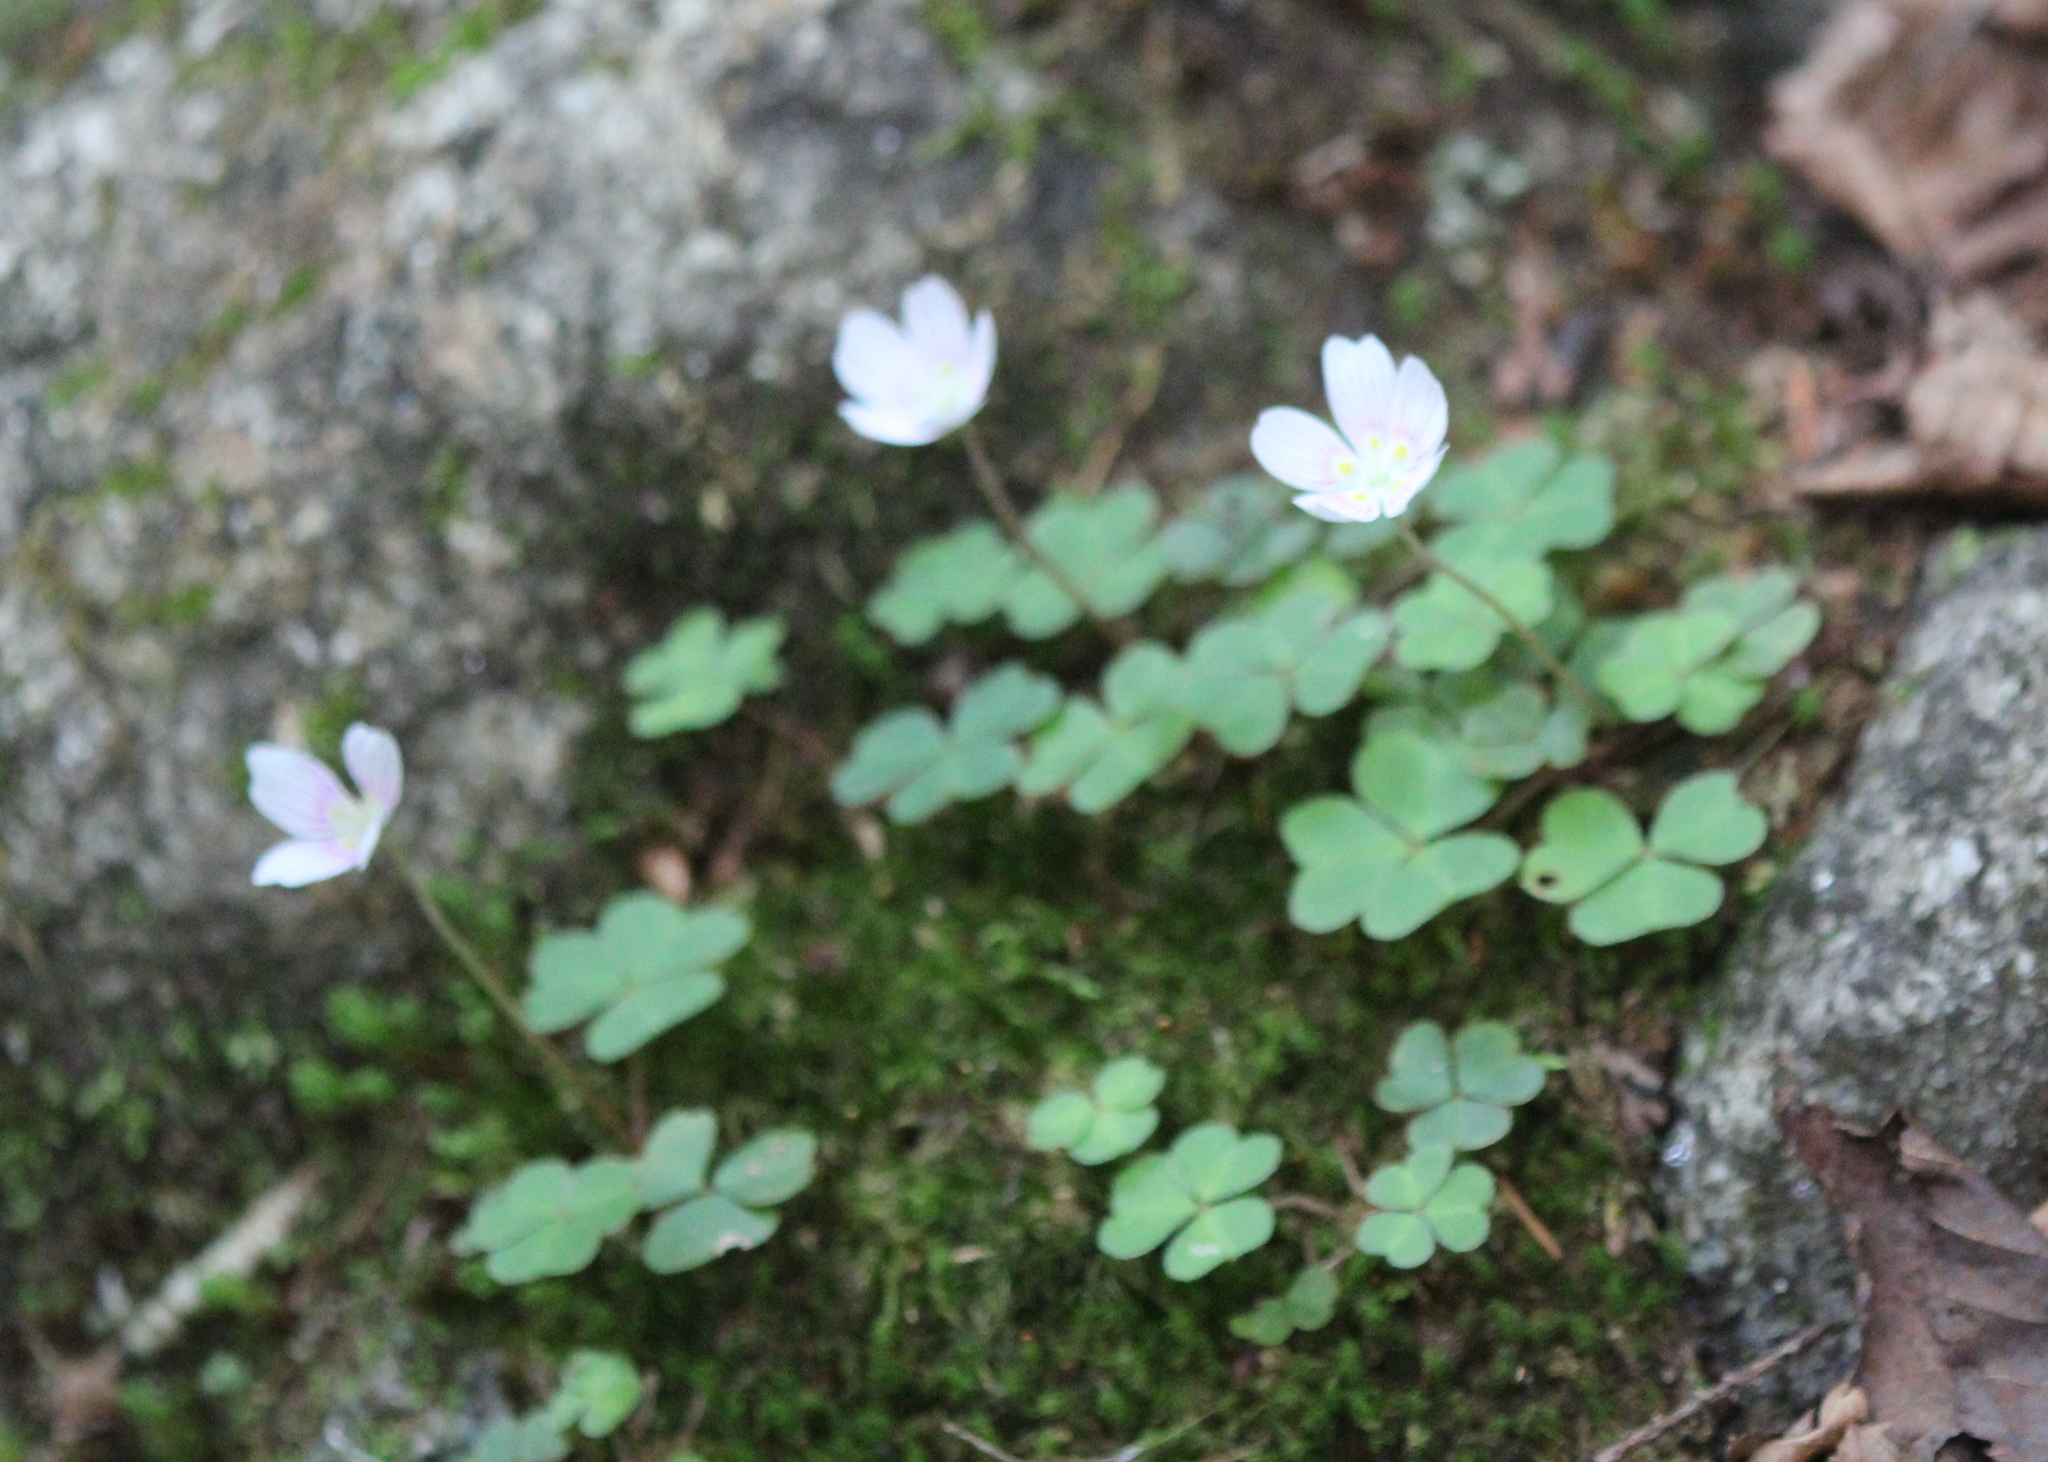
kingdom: Plantae
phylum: Tracheophyta
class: Magnoliopsida
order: Oxalidales
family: Oxalidaceae
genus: Oxalis
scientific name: Oxalis montana
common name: American wood-sorrel
